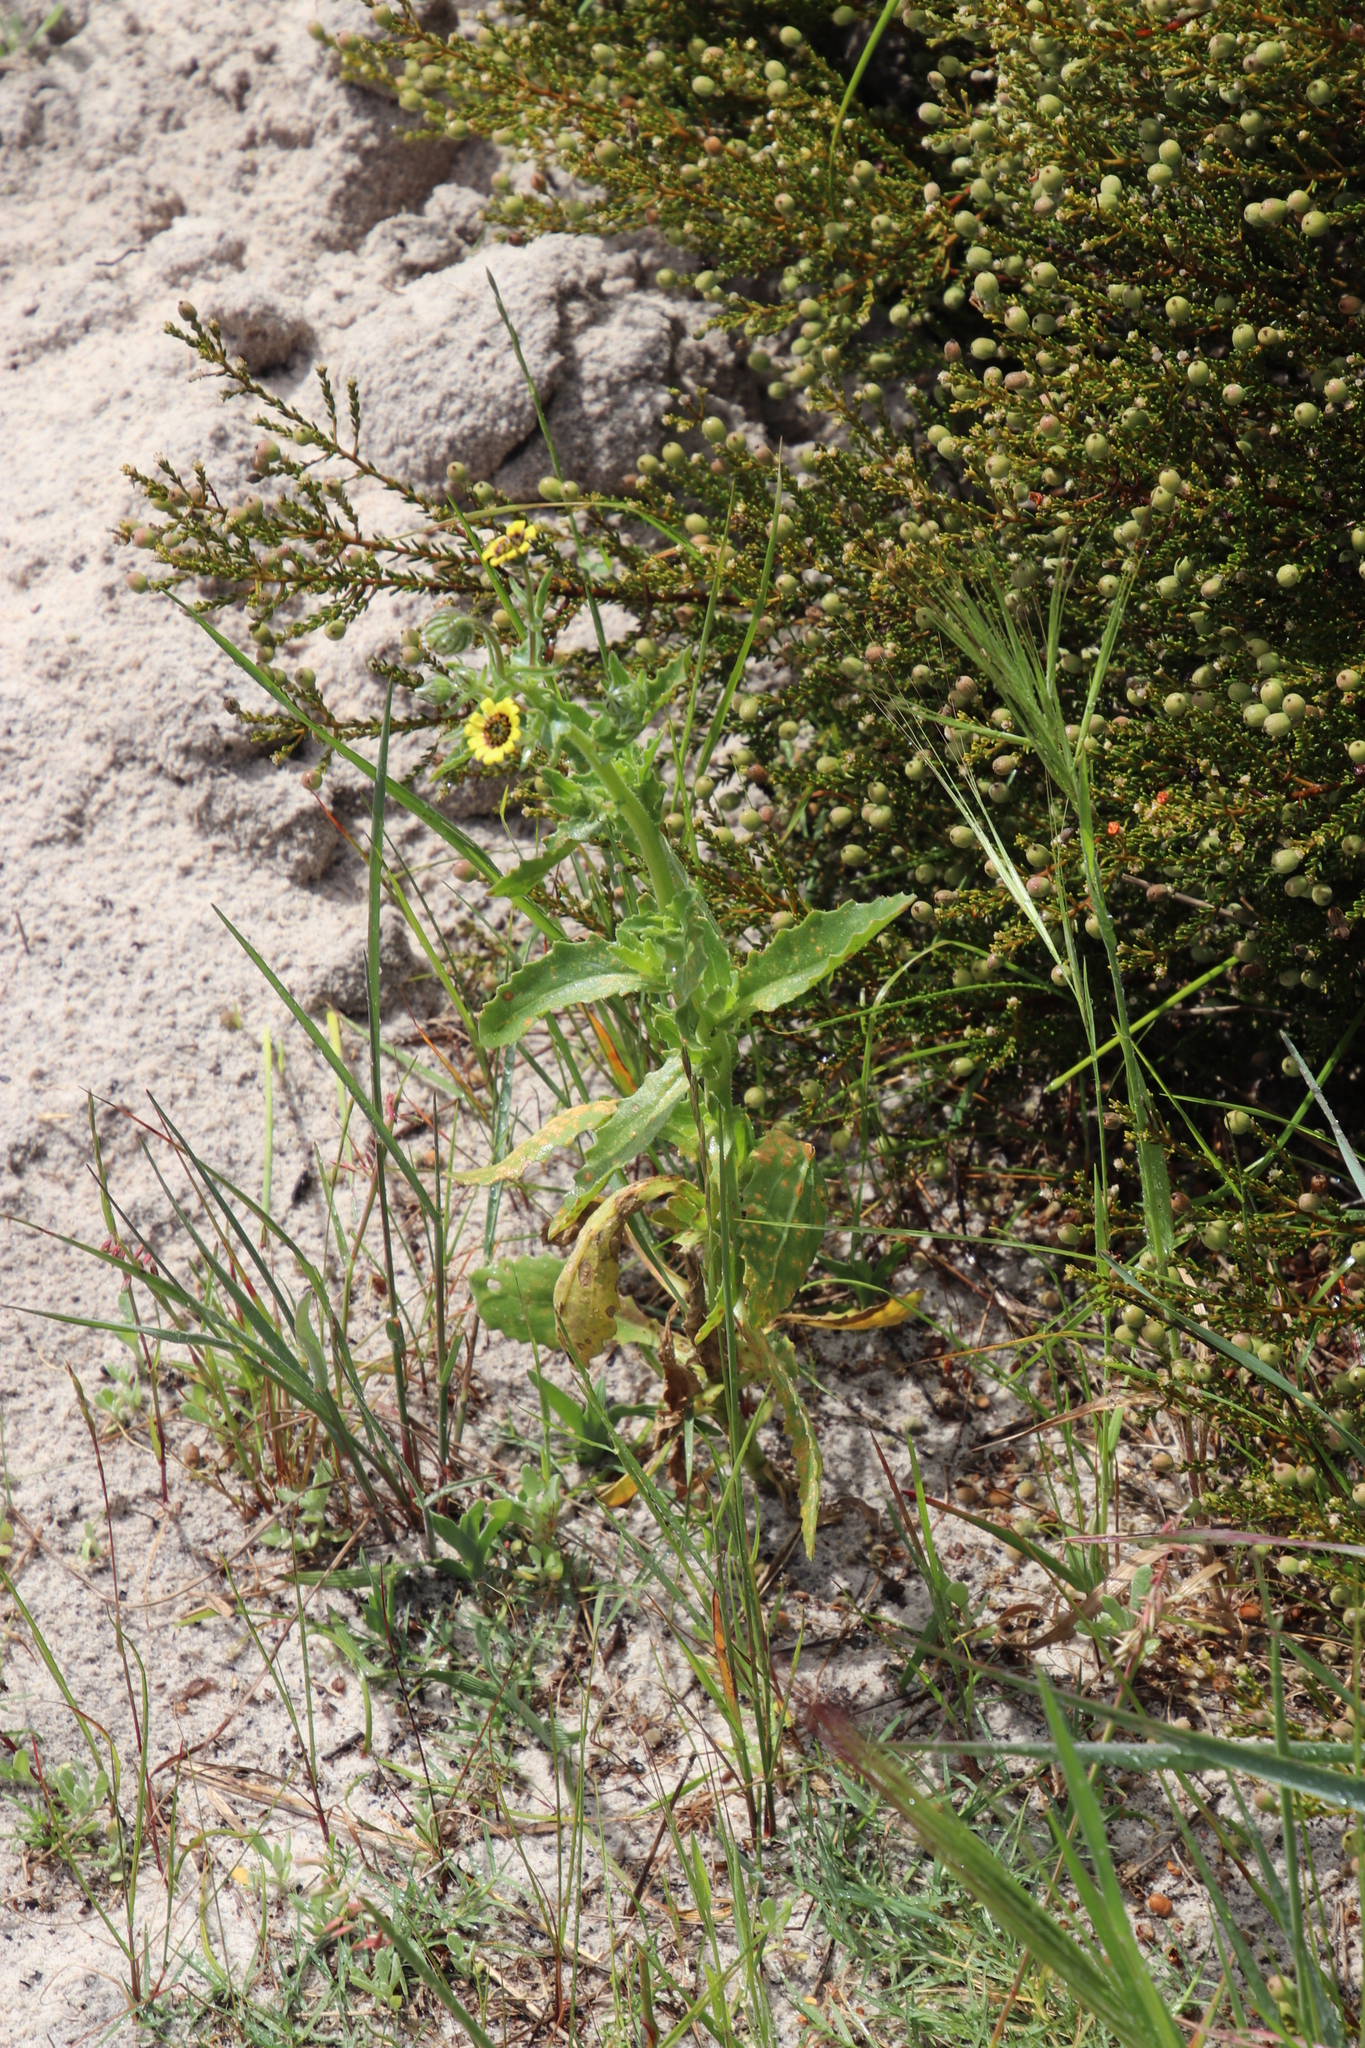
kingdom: Plantae
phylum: Tracheophyta
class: Magnoliopsida
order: Asterales
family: Asteraceae
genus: Osteospermum
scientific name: Osteospermum monstrosum
